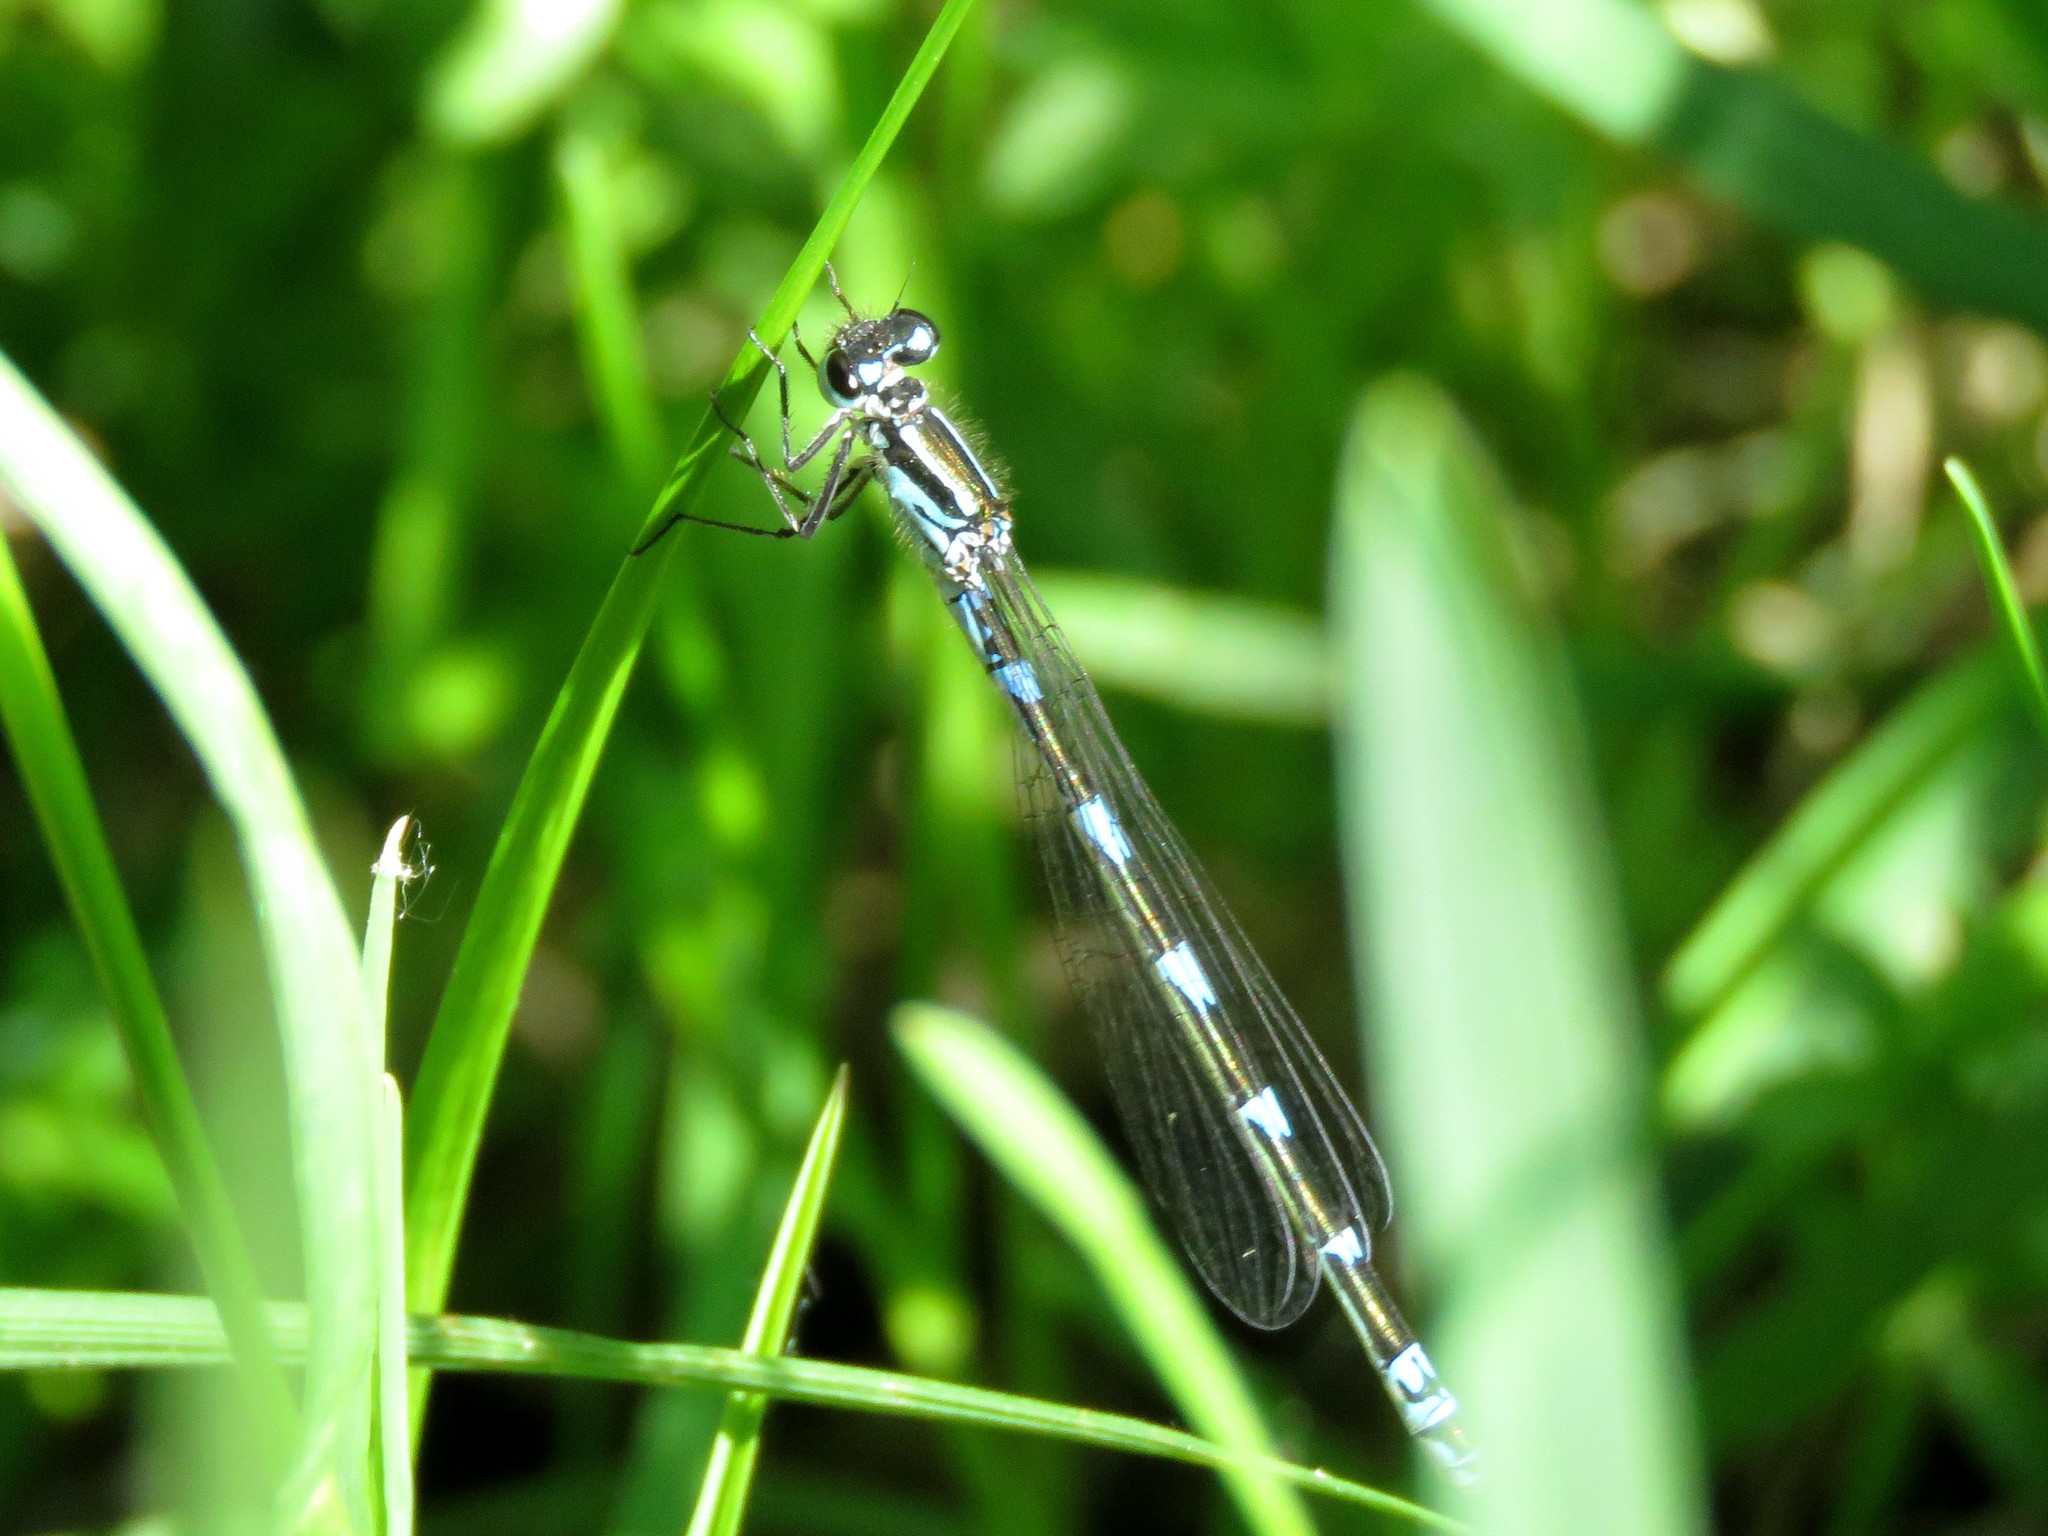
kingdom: Animalia
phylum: Arthropoda
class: Insecta
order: Odonata
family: Coenagrionidae
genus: Coenagrion
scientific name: Coenagrion pulchellum
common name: Variable bluet
